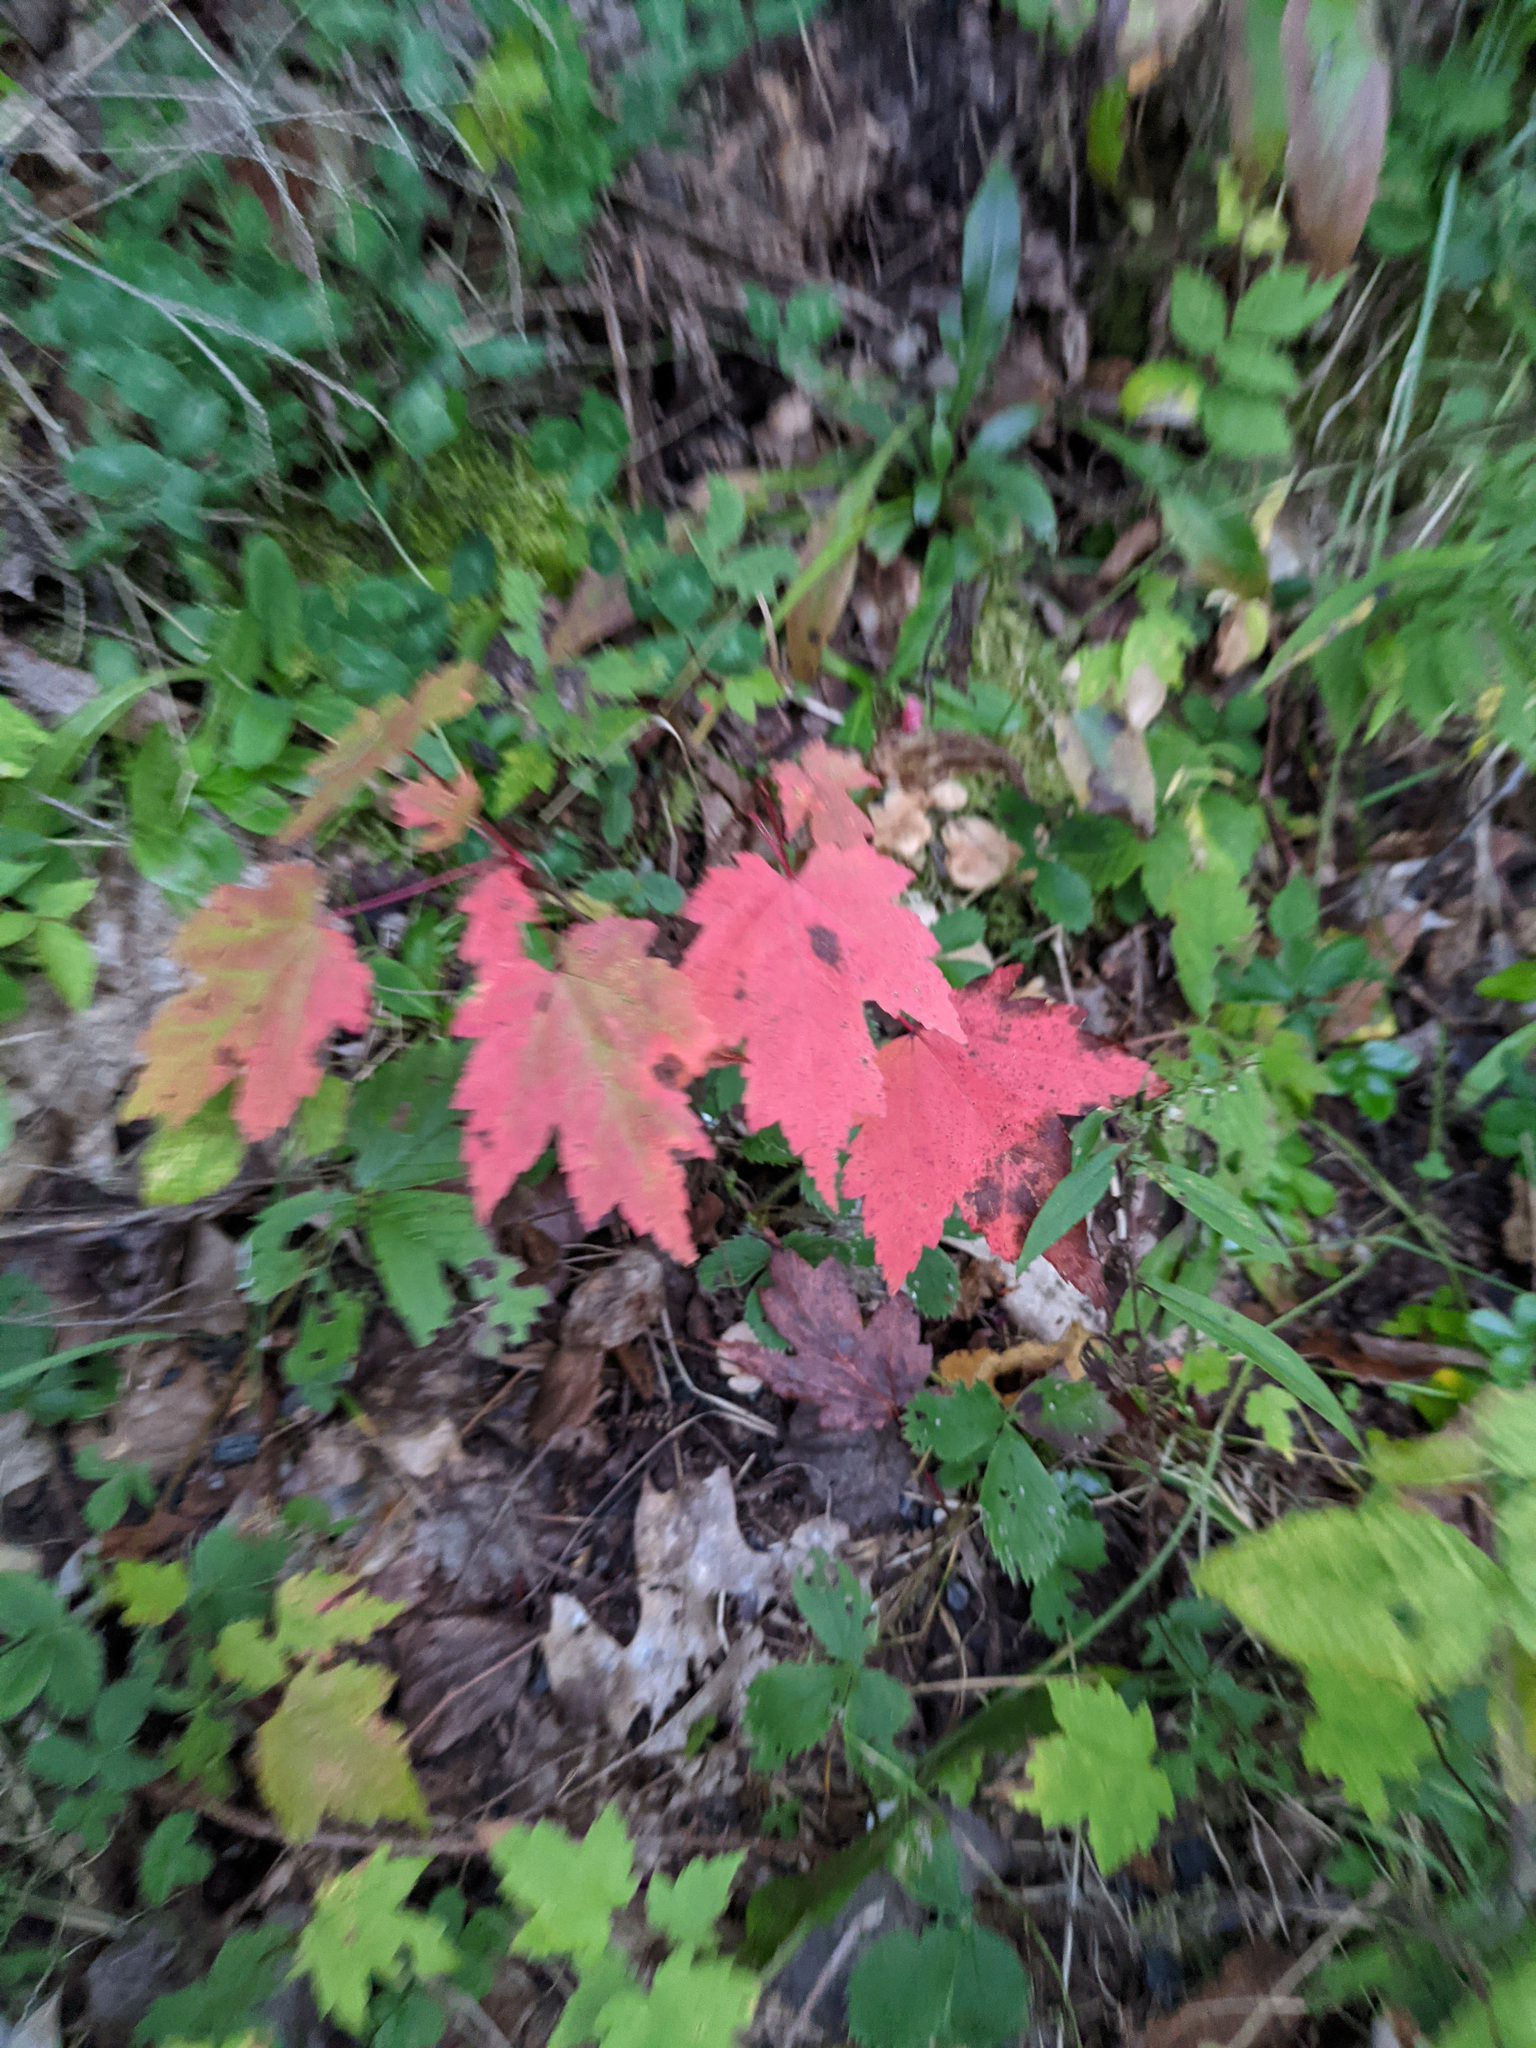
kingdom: Plantae
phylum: Tracheophyta
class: Magnoliopsida
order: Sapindales
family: Sapindaceae
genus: Acer
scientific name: Acer rubrum
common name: Red maple
